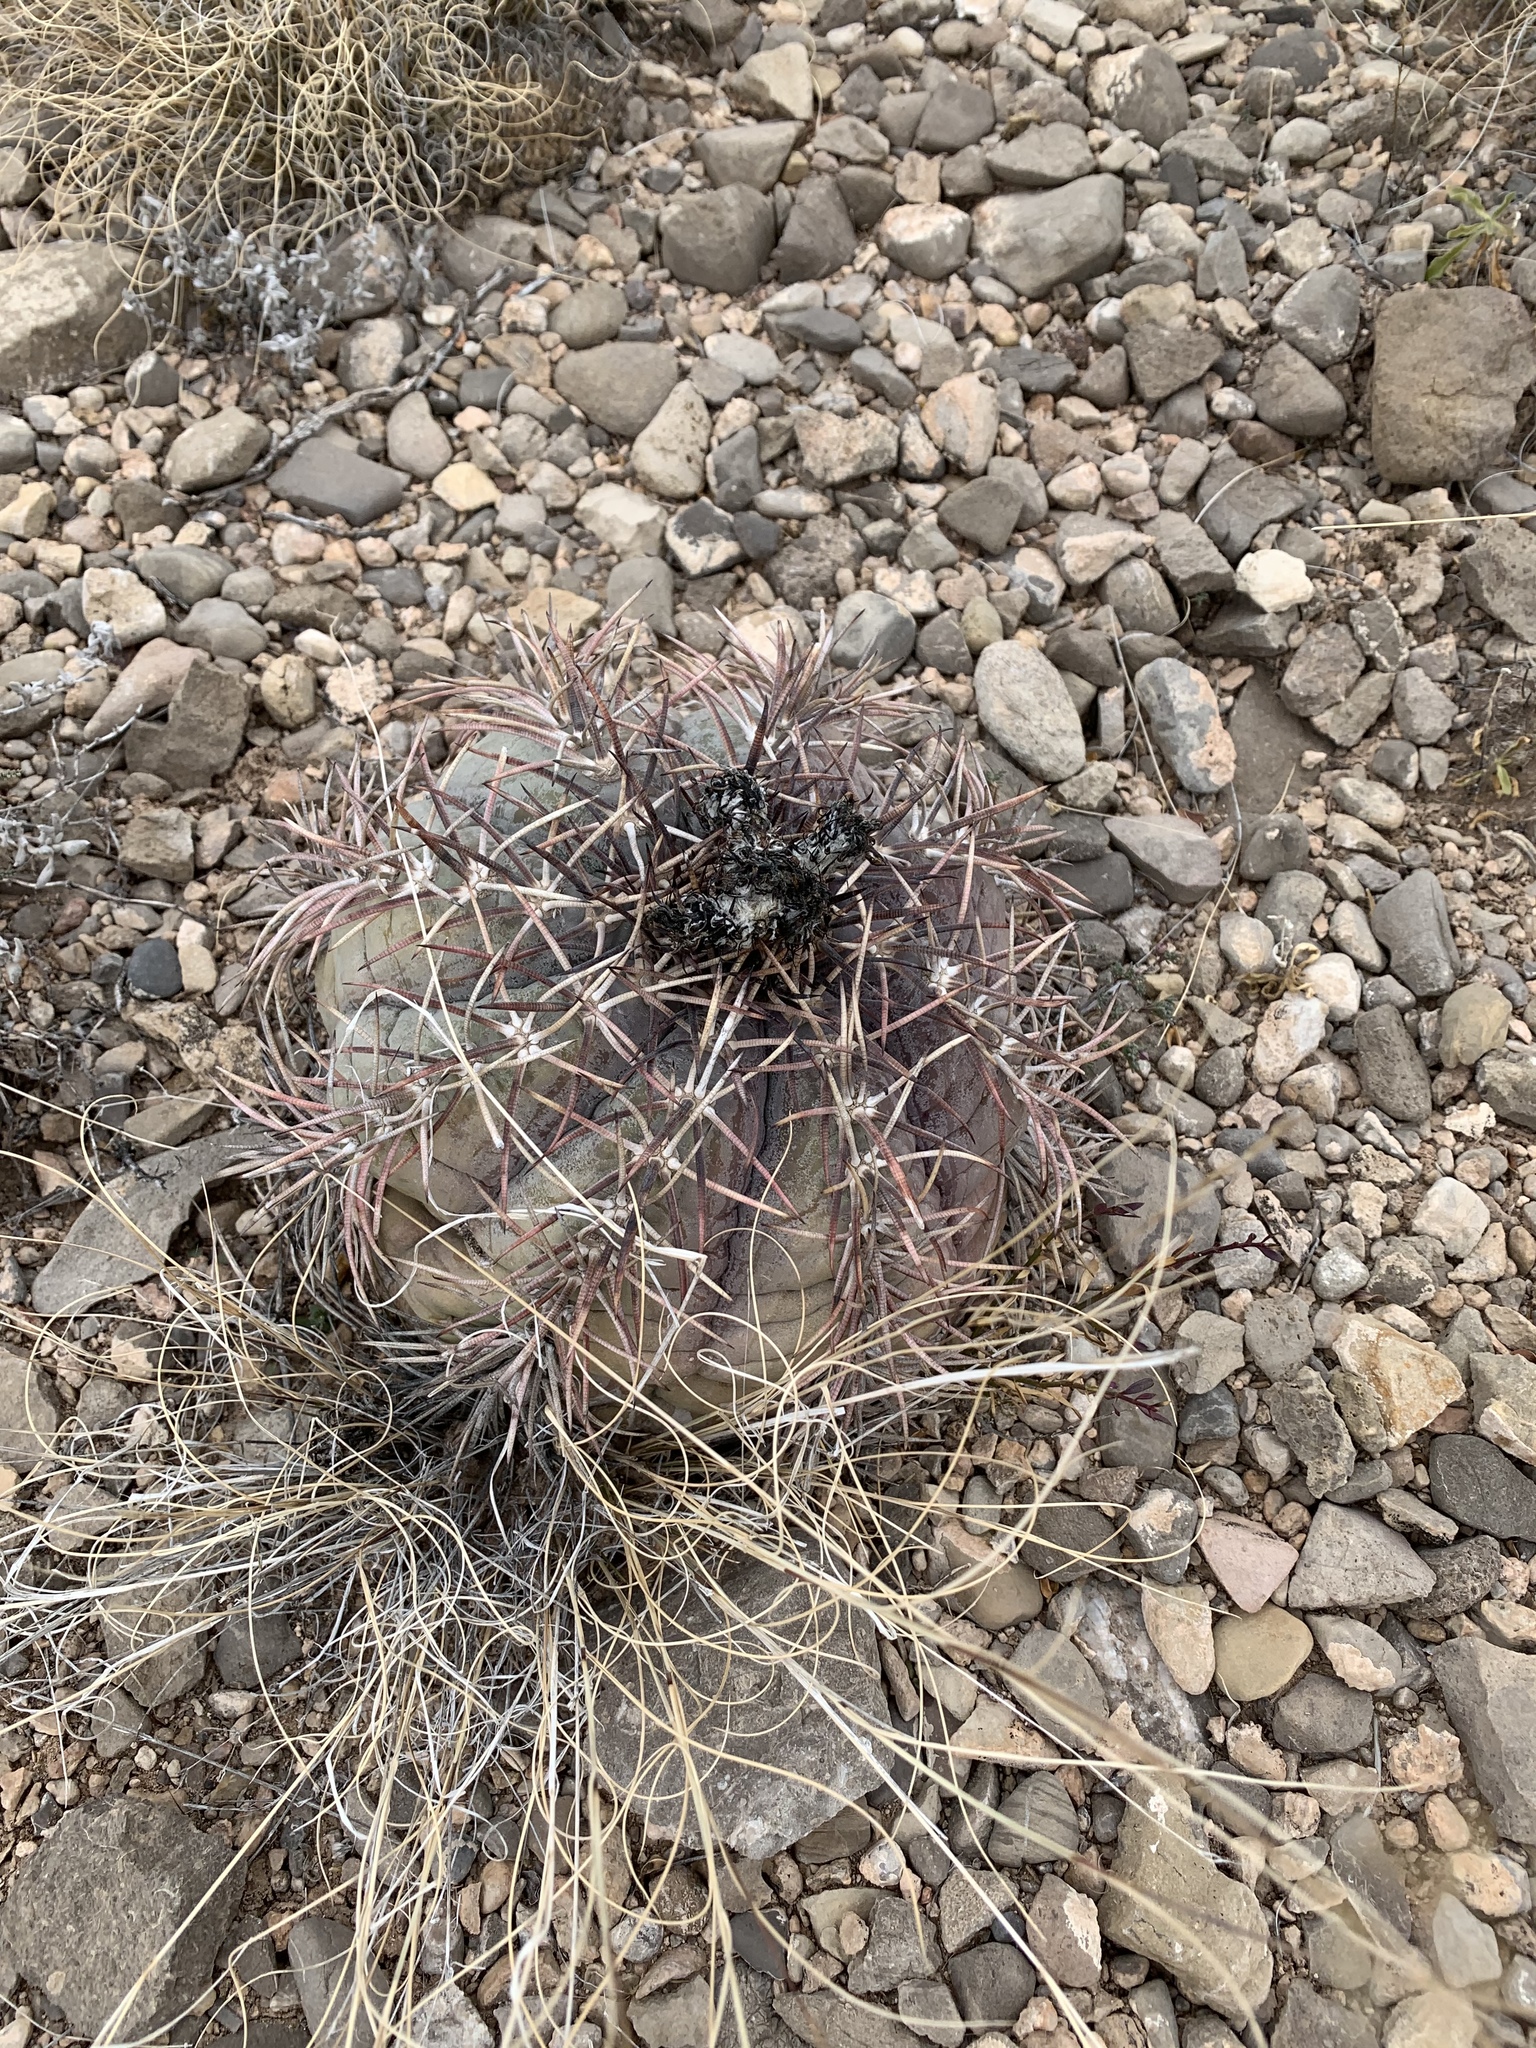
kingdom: Plantae
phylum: Tracheophyta
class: Magnoliopsida
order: Caryophyllales
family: Cactaceae
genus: Echinocactus
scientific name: Echinocactus horizonthalonius
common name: Devilshead
